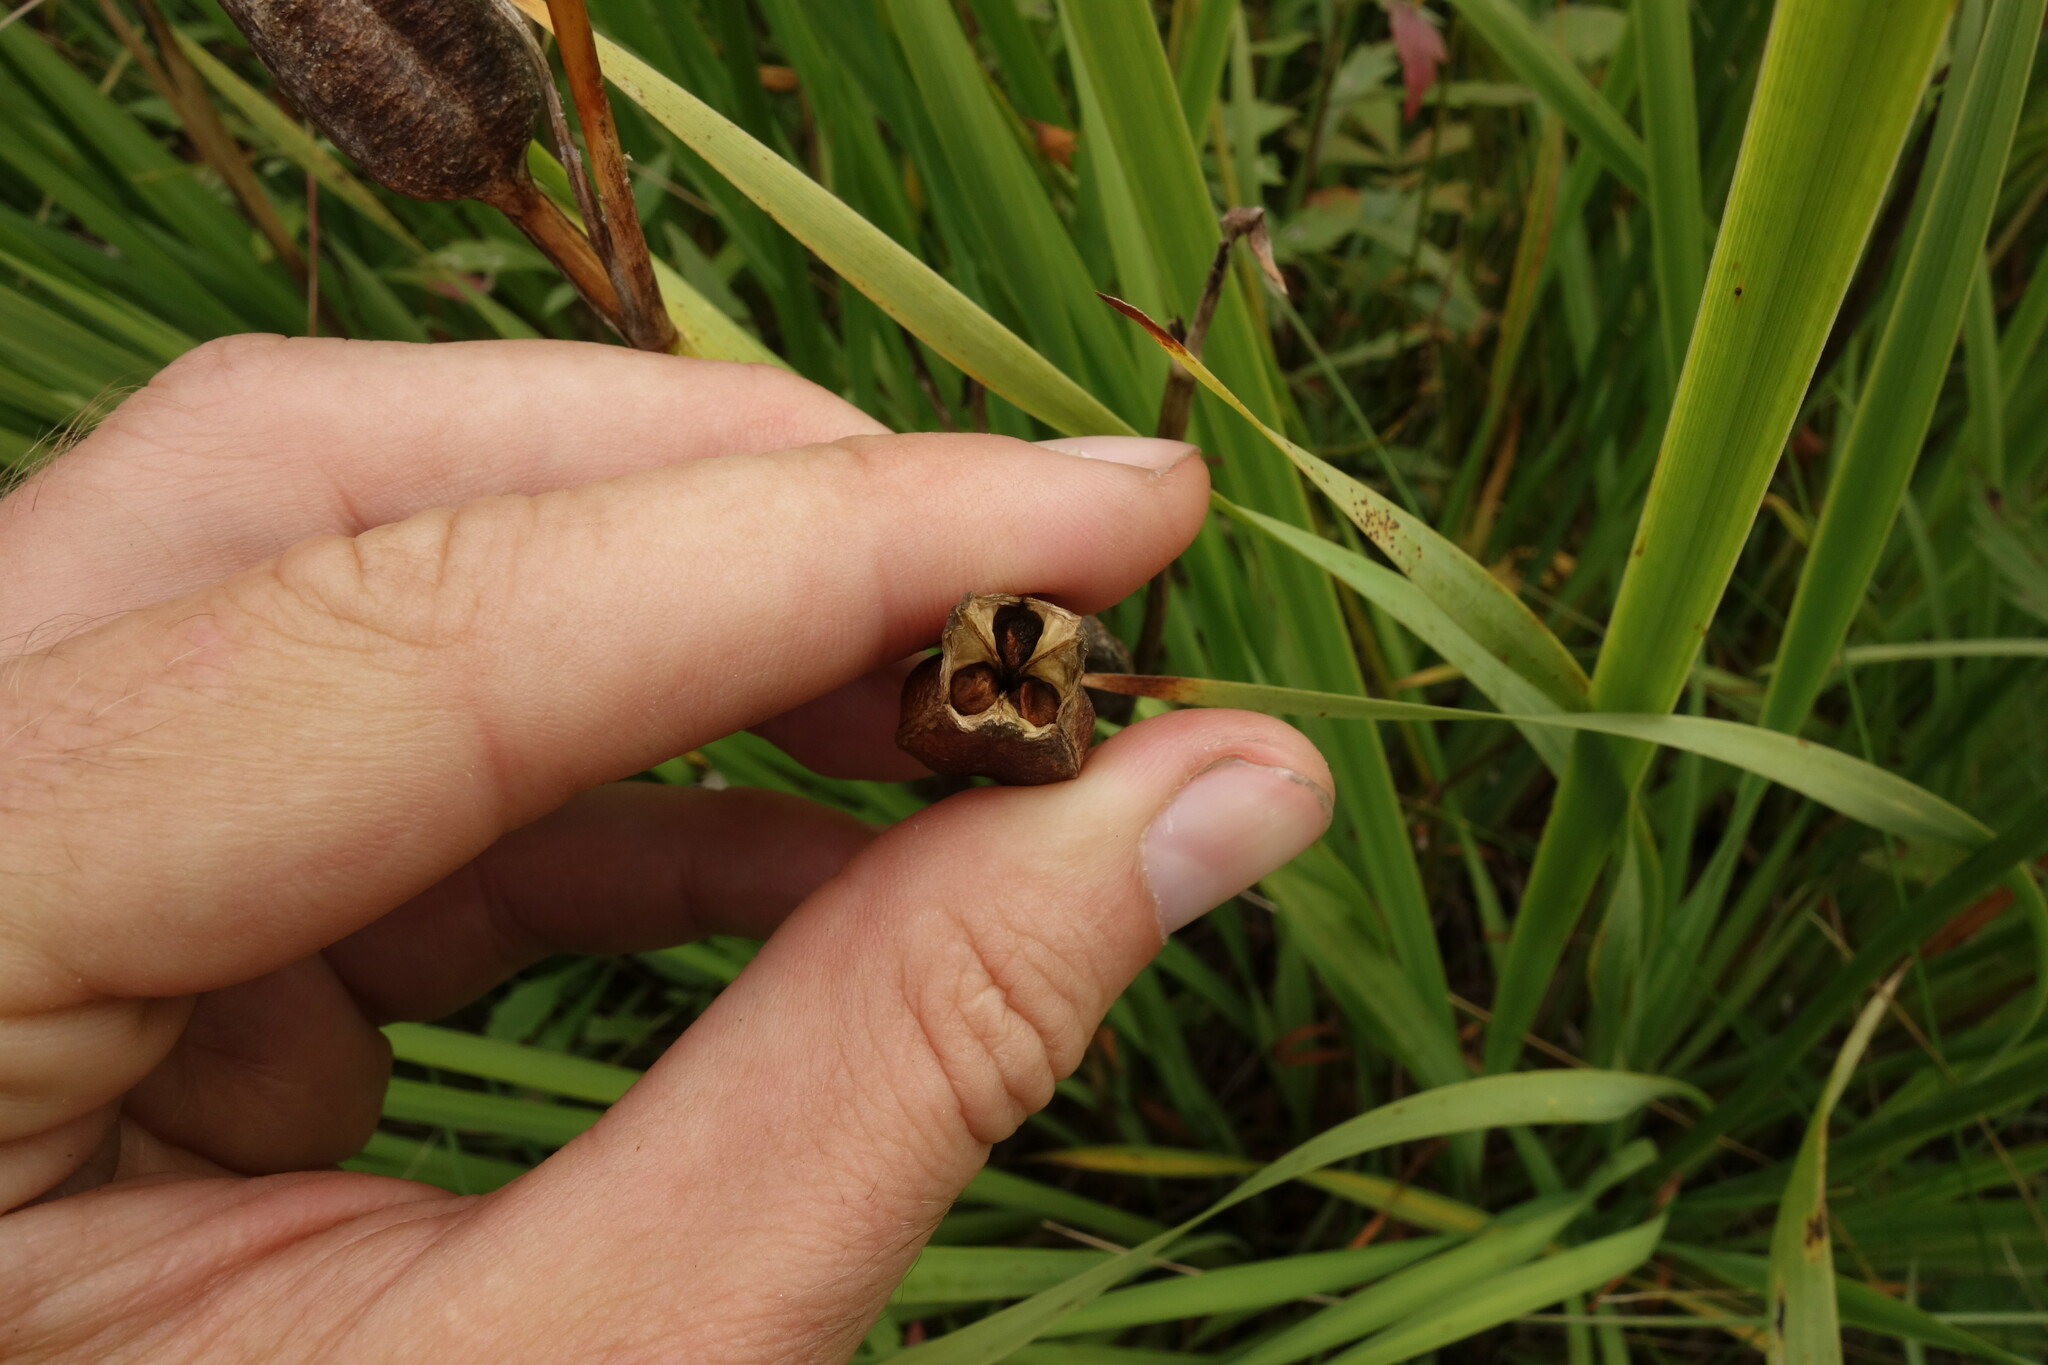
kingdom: Plantae
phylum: Tracheophyta
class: Liliopsida
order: Asparagales
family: Iridaceae
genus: Iris
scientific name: Iris sanguinea
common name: Blood iris
